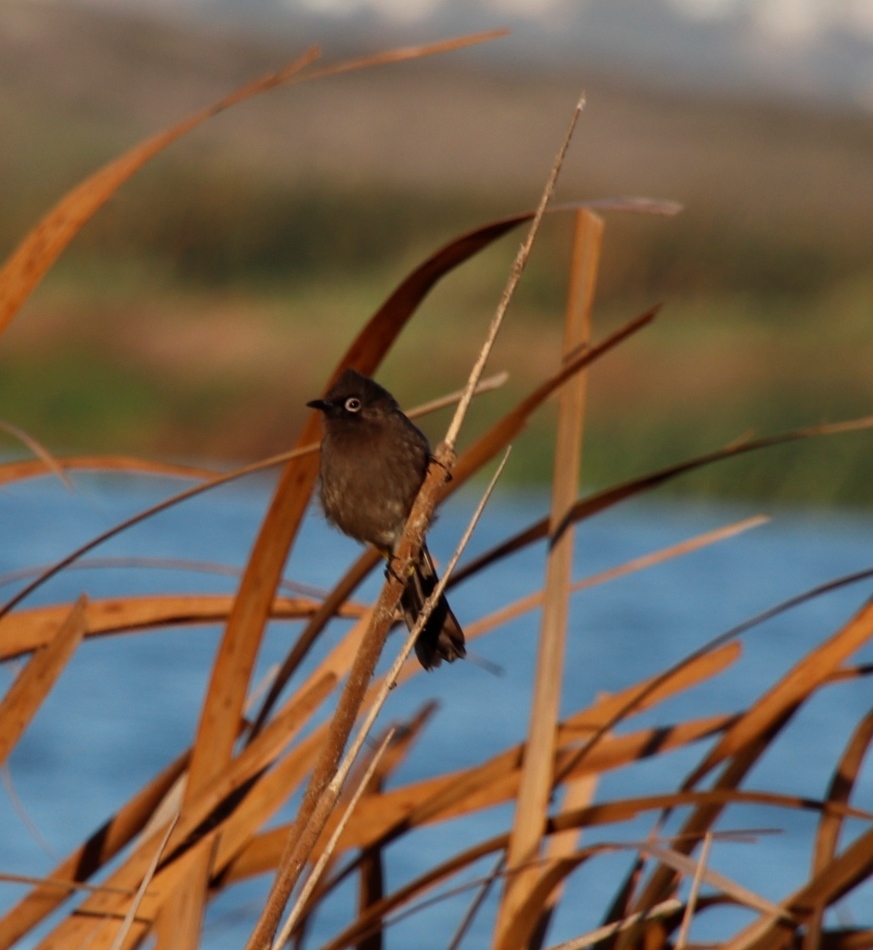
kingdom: Animalia
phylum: Chordata
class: Aves
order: Passeriformes
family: Pycnonotidae
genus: Pycnonotus
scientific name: Pycnonotus capensis
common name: Cape bulbul
